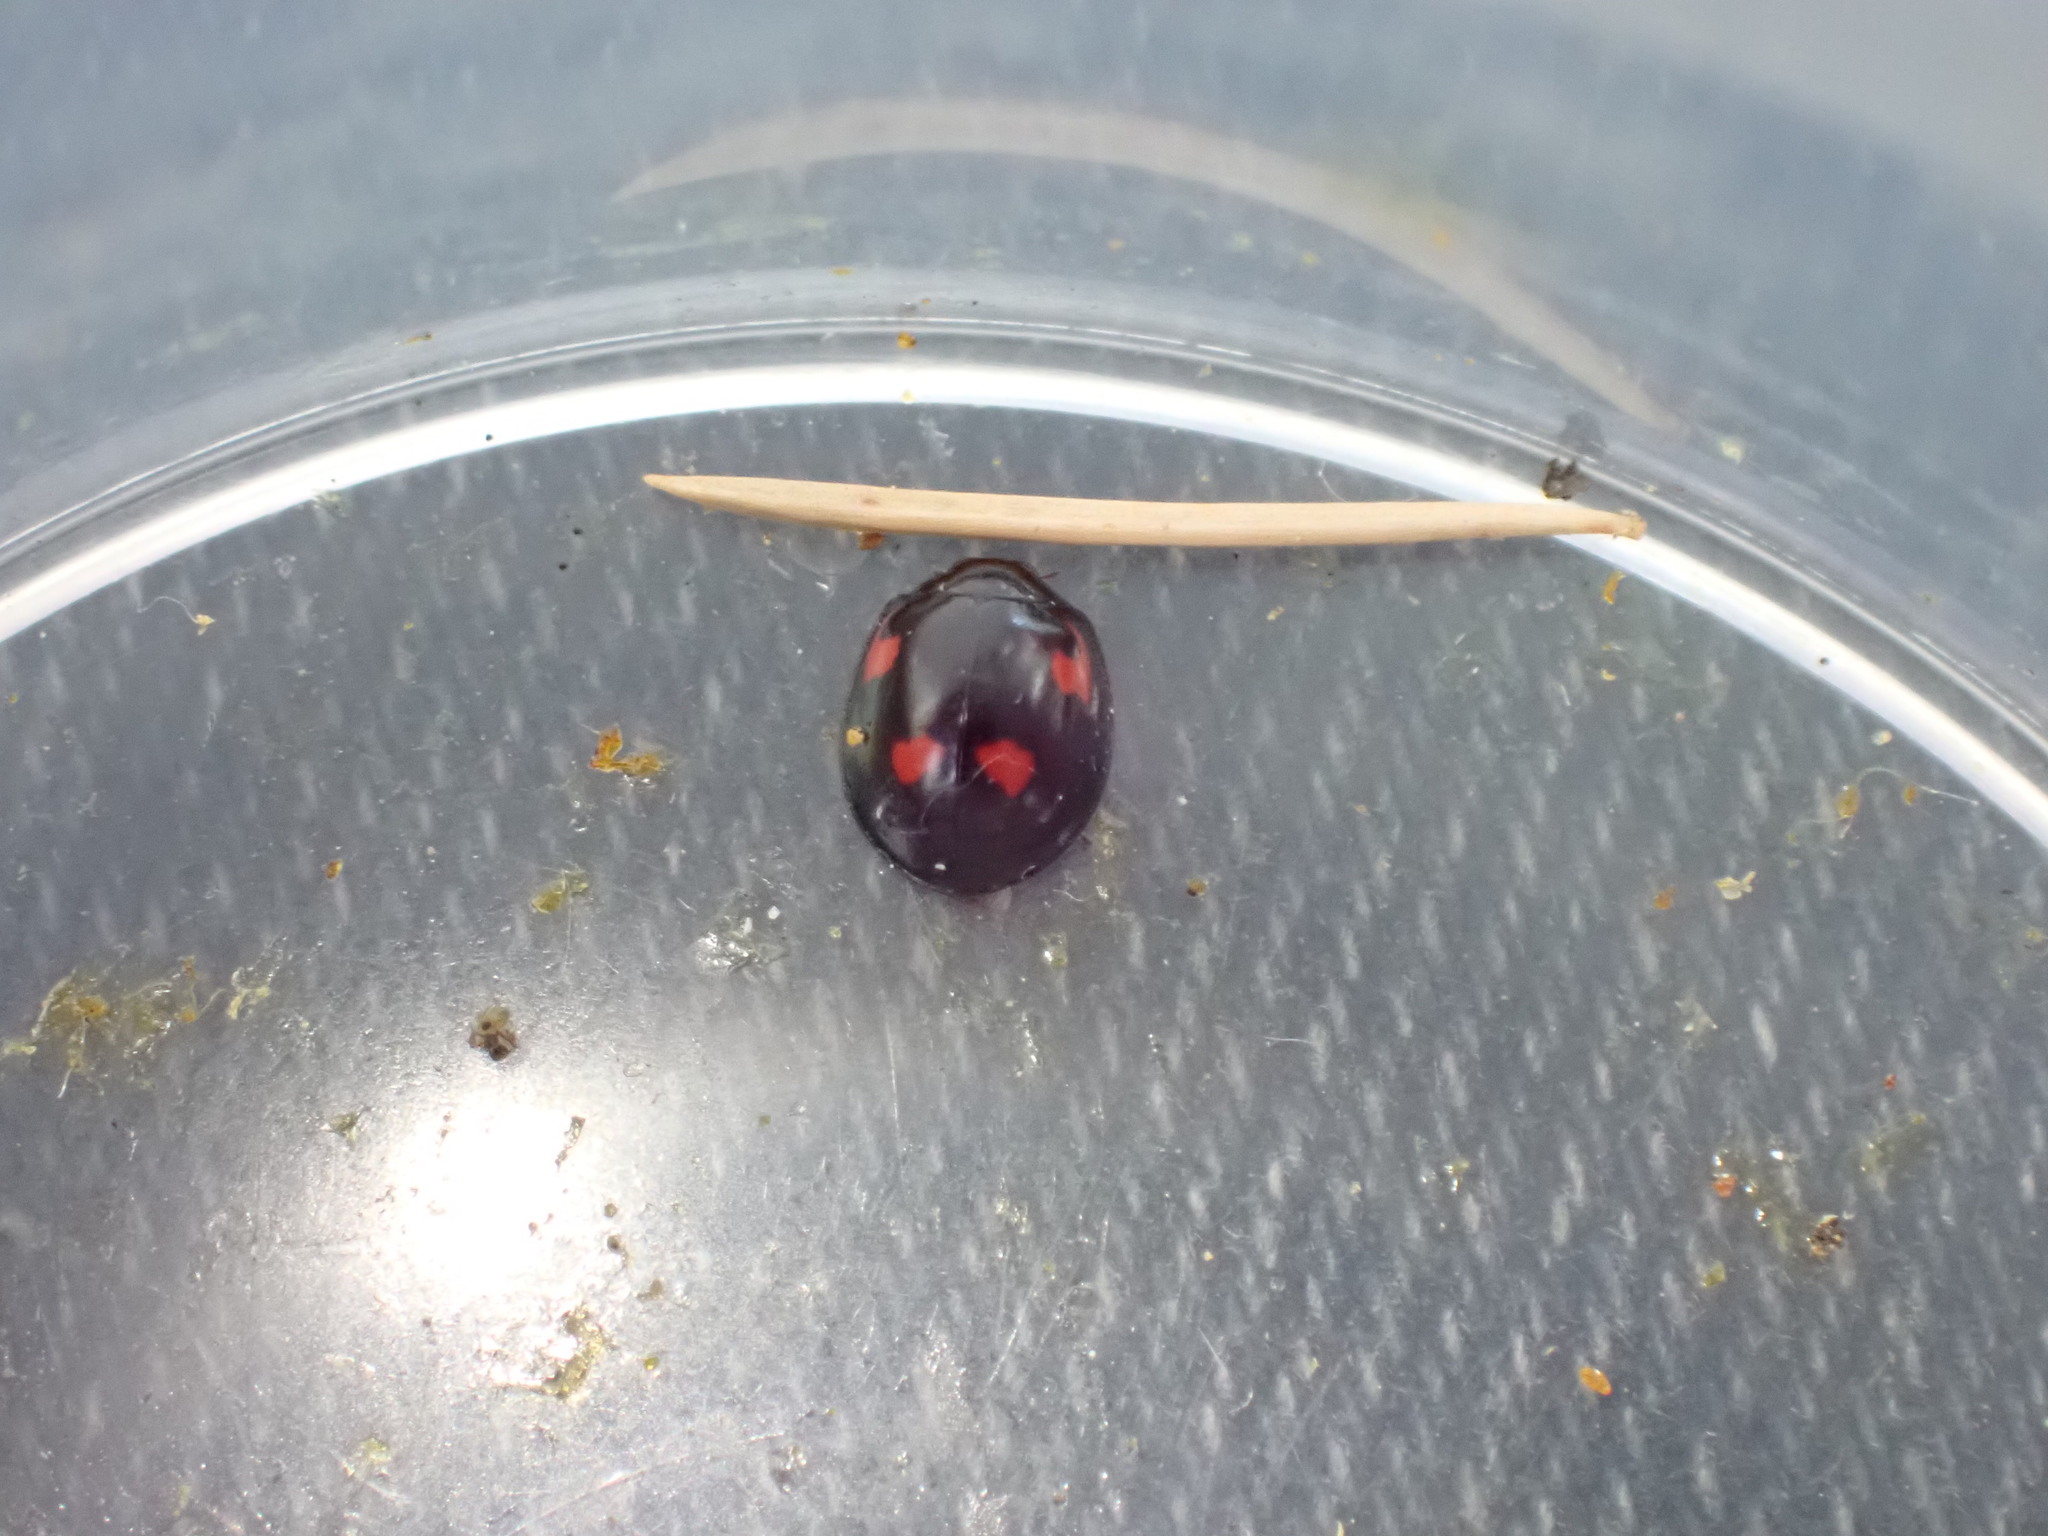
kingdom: Animalia
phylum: Arthropoda
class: Insecta
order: Coleoptera
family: Coccinellidae
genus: Brumus
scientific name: Brumus quadripustulatus
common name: Ladybird beetle
